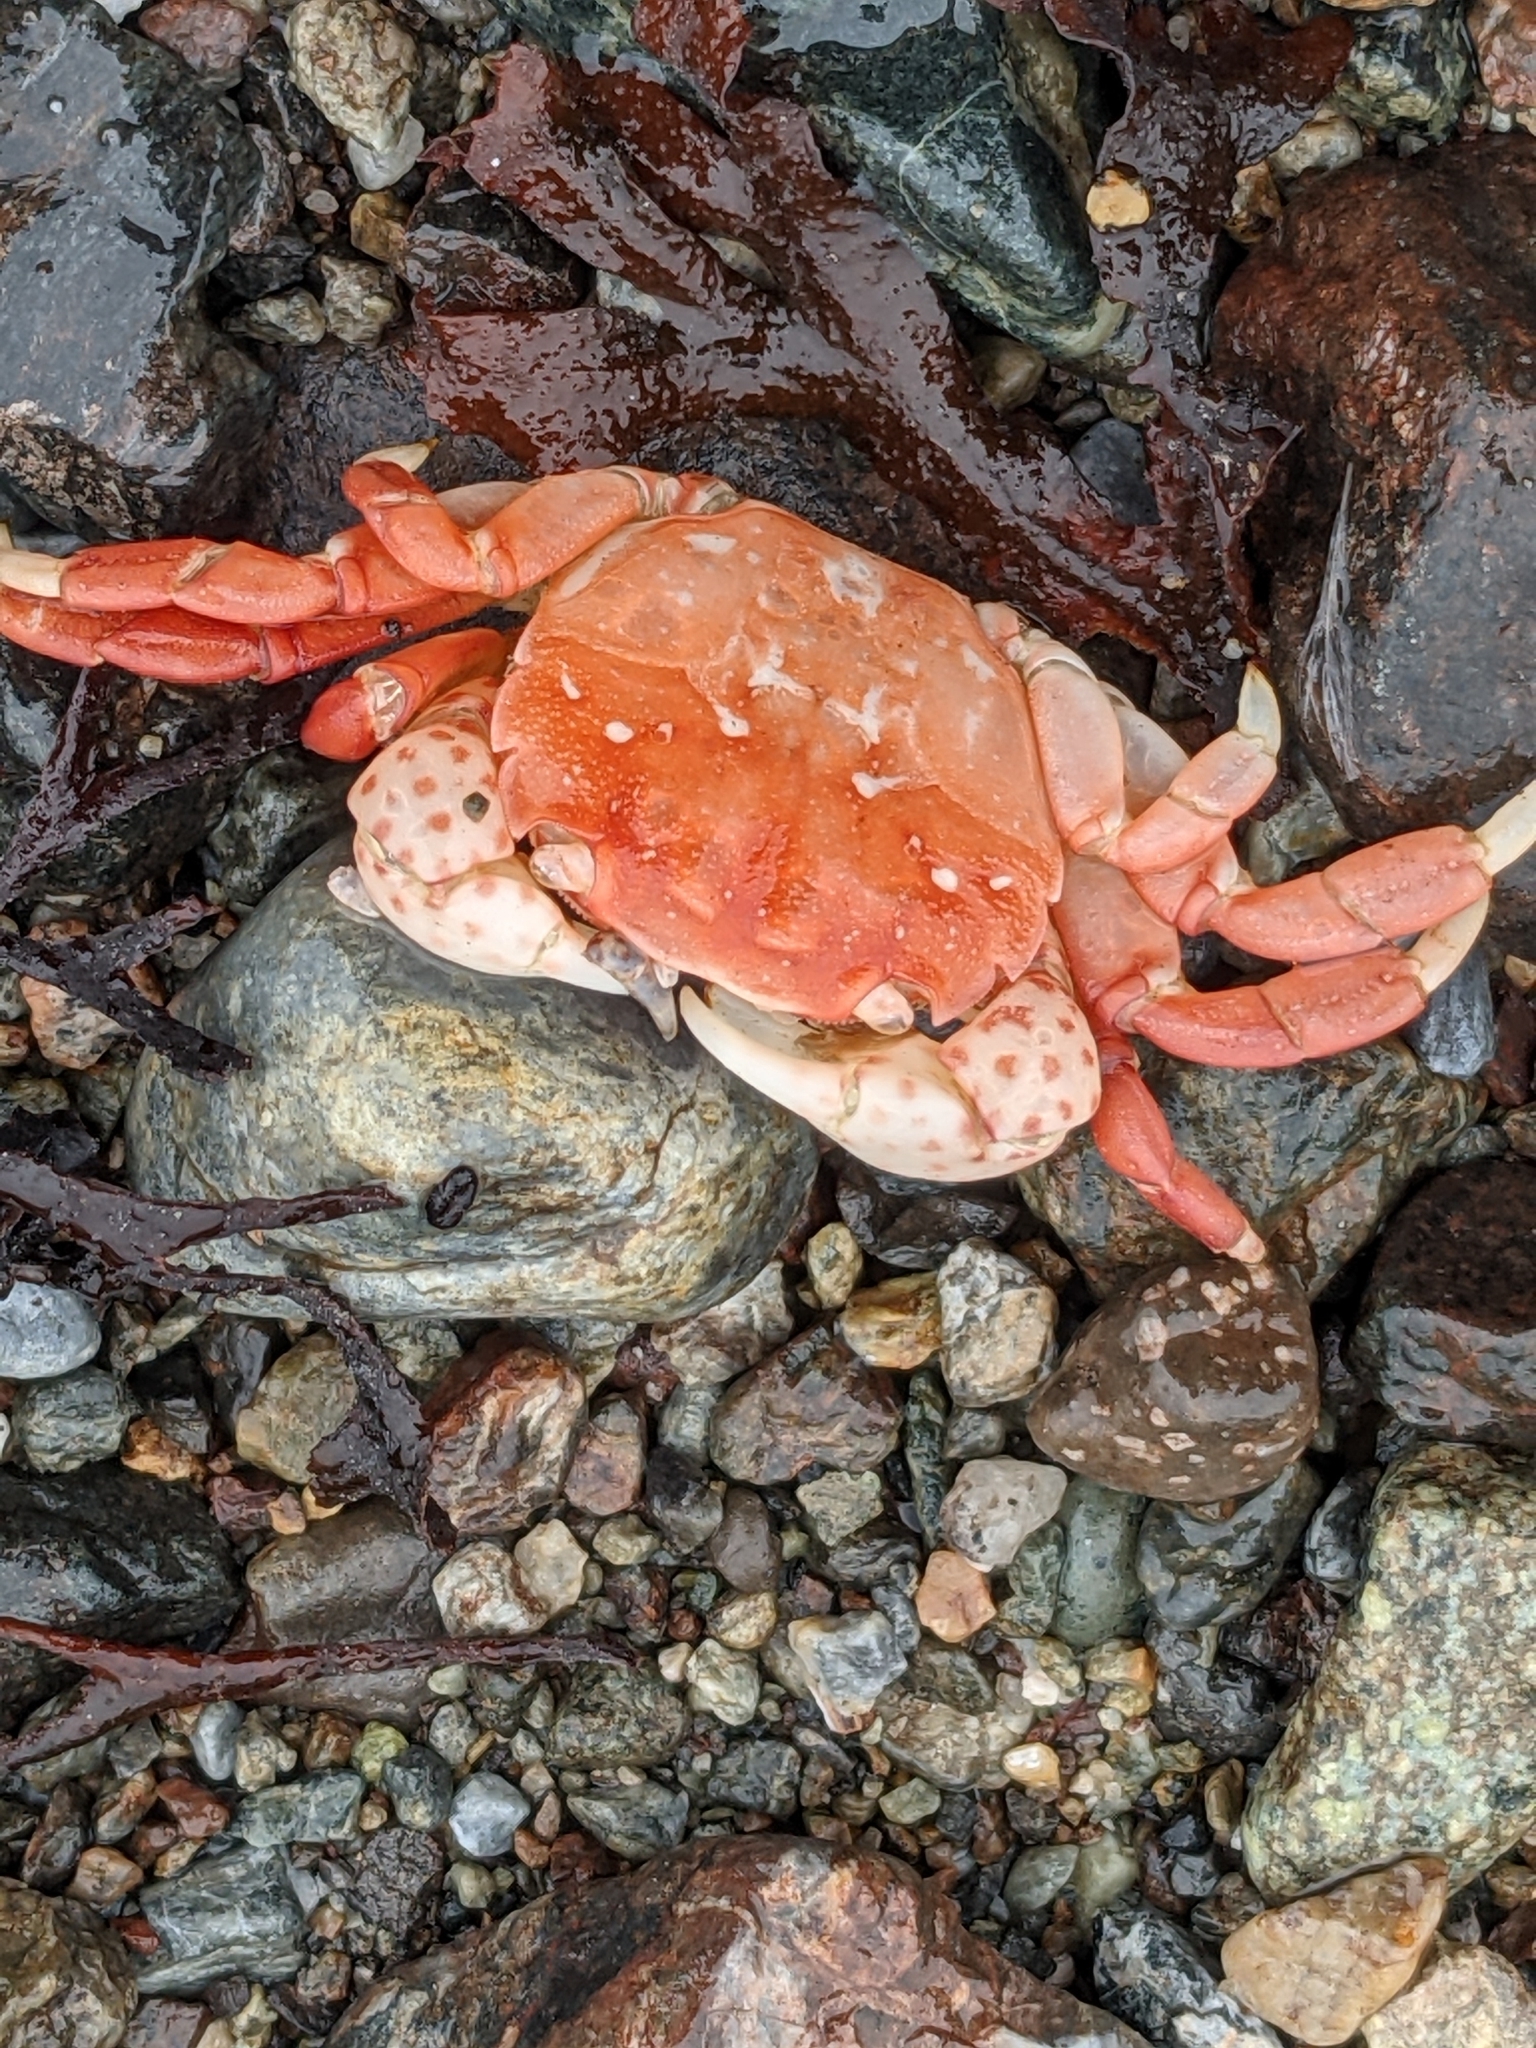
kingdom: Animalia
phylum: Arthropoda
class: Malacostraca
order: Decapoda
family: Varunidae
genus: Hemigrapsus
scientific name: Hemigrapsus nudus
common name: Purple shore crab
